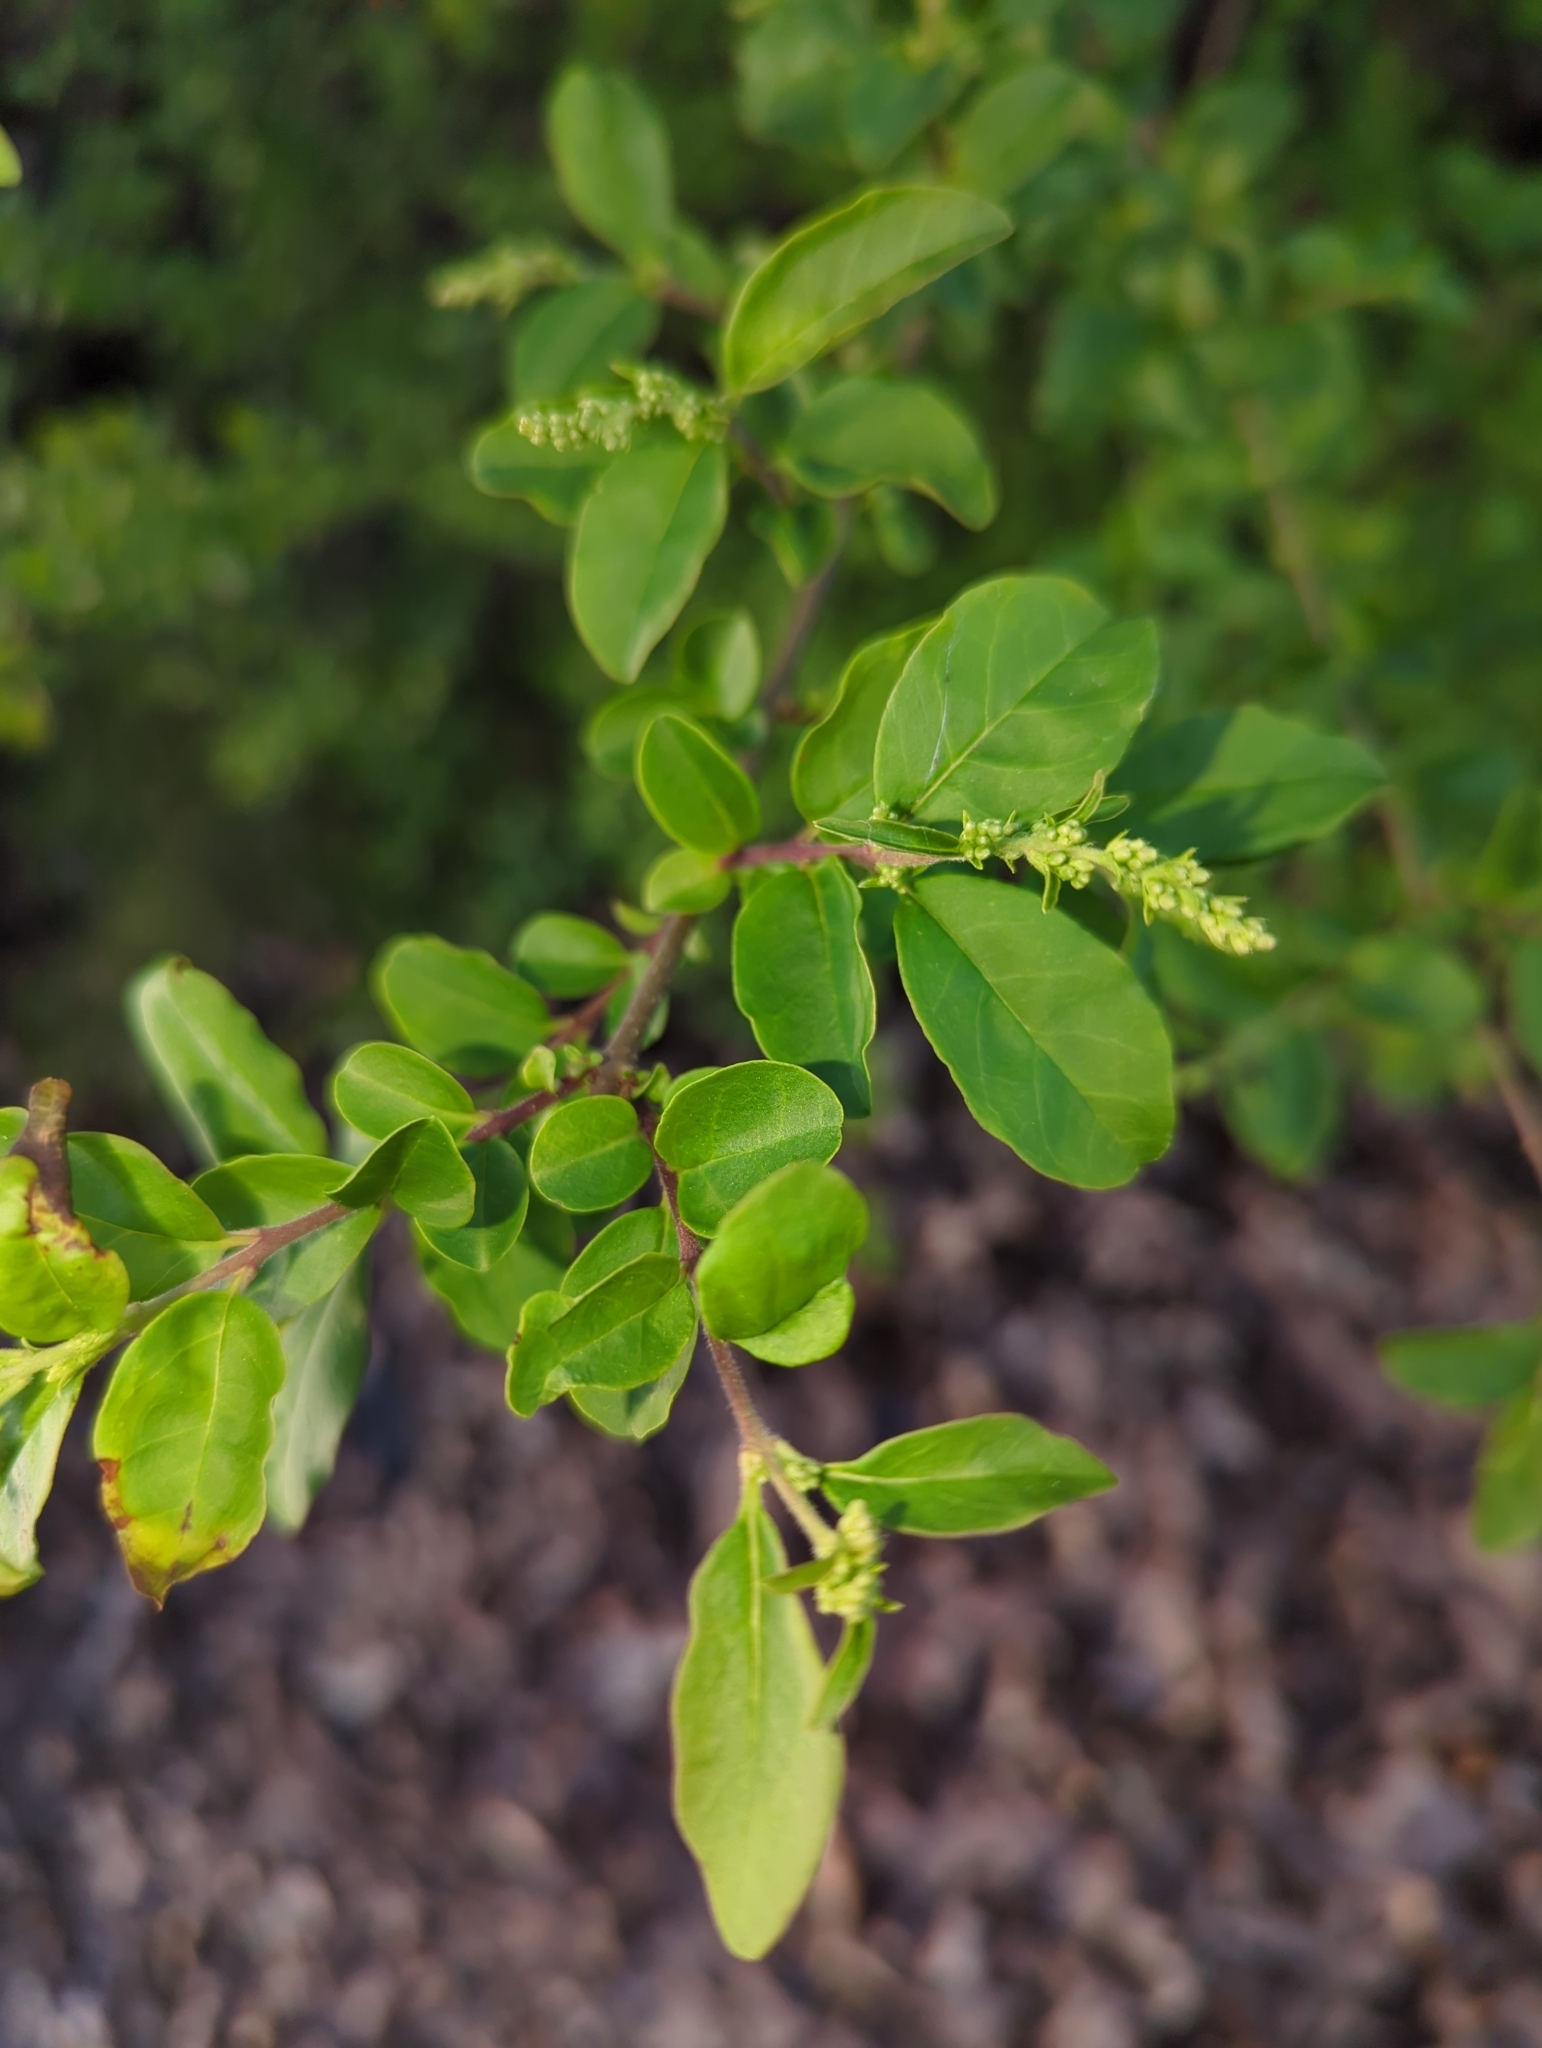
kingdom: Plantae
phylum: Tracheophyta
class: Magnoliopsida
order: Lamiales
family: Oleaceae
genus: Ligustrum
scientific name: Ligustrum sinense
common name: Chinese privet
